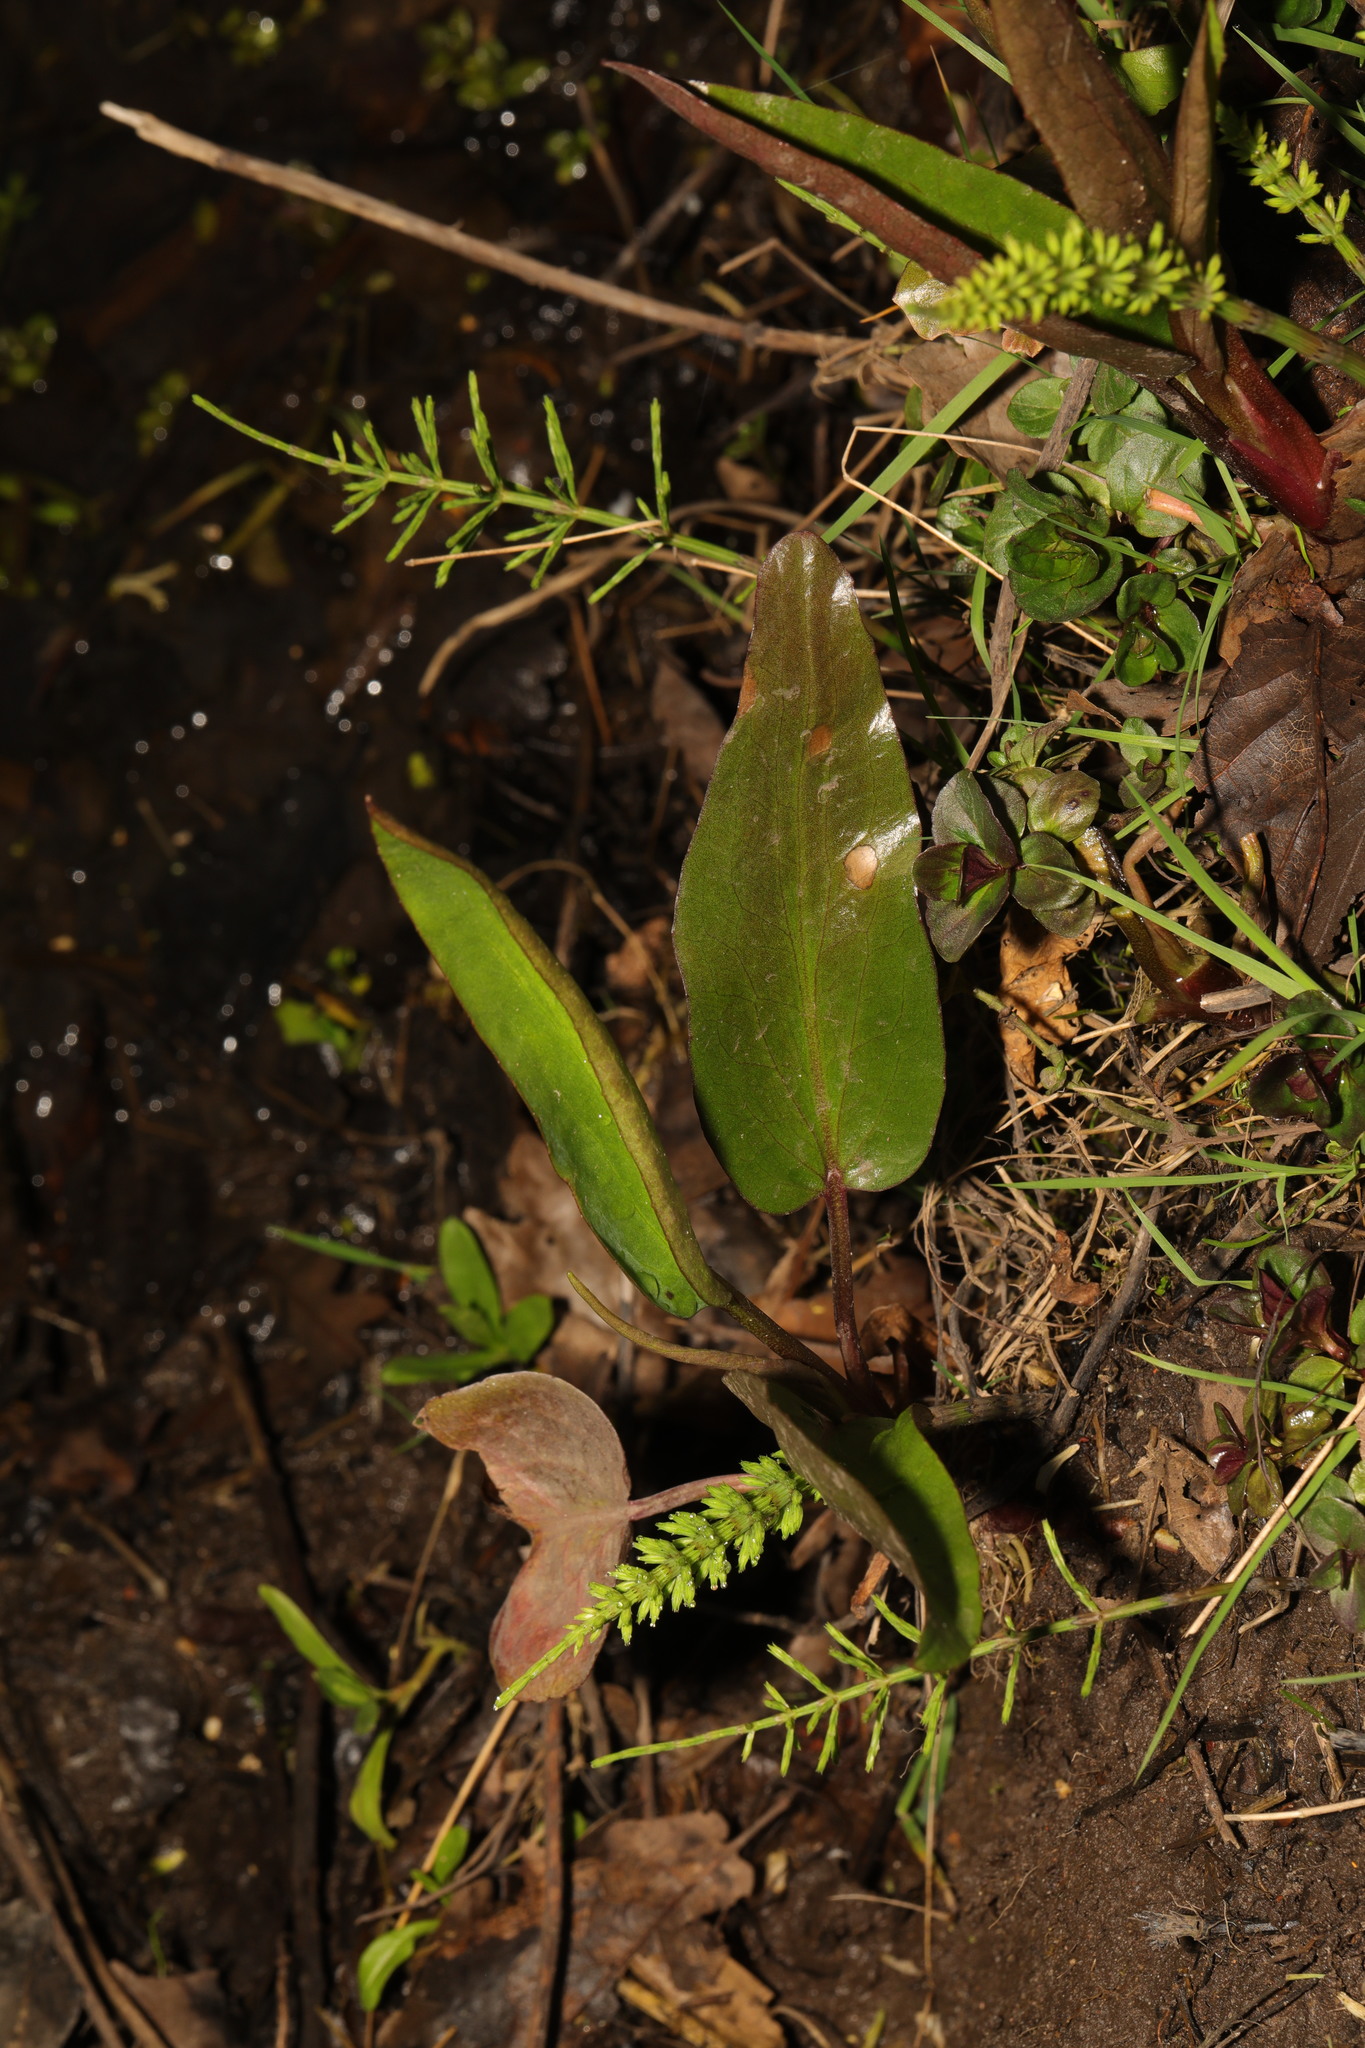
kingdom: Plantae
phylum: Tracheophyta
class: Liliopsida
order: Alismatales
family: Alismataceae
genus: Alisma
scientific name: Alisma plantago-aquatica
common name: Water-plantain
